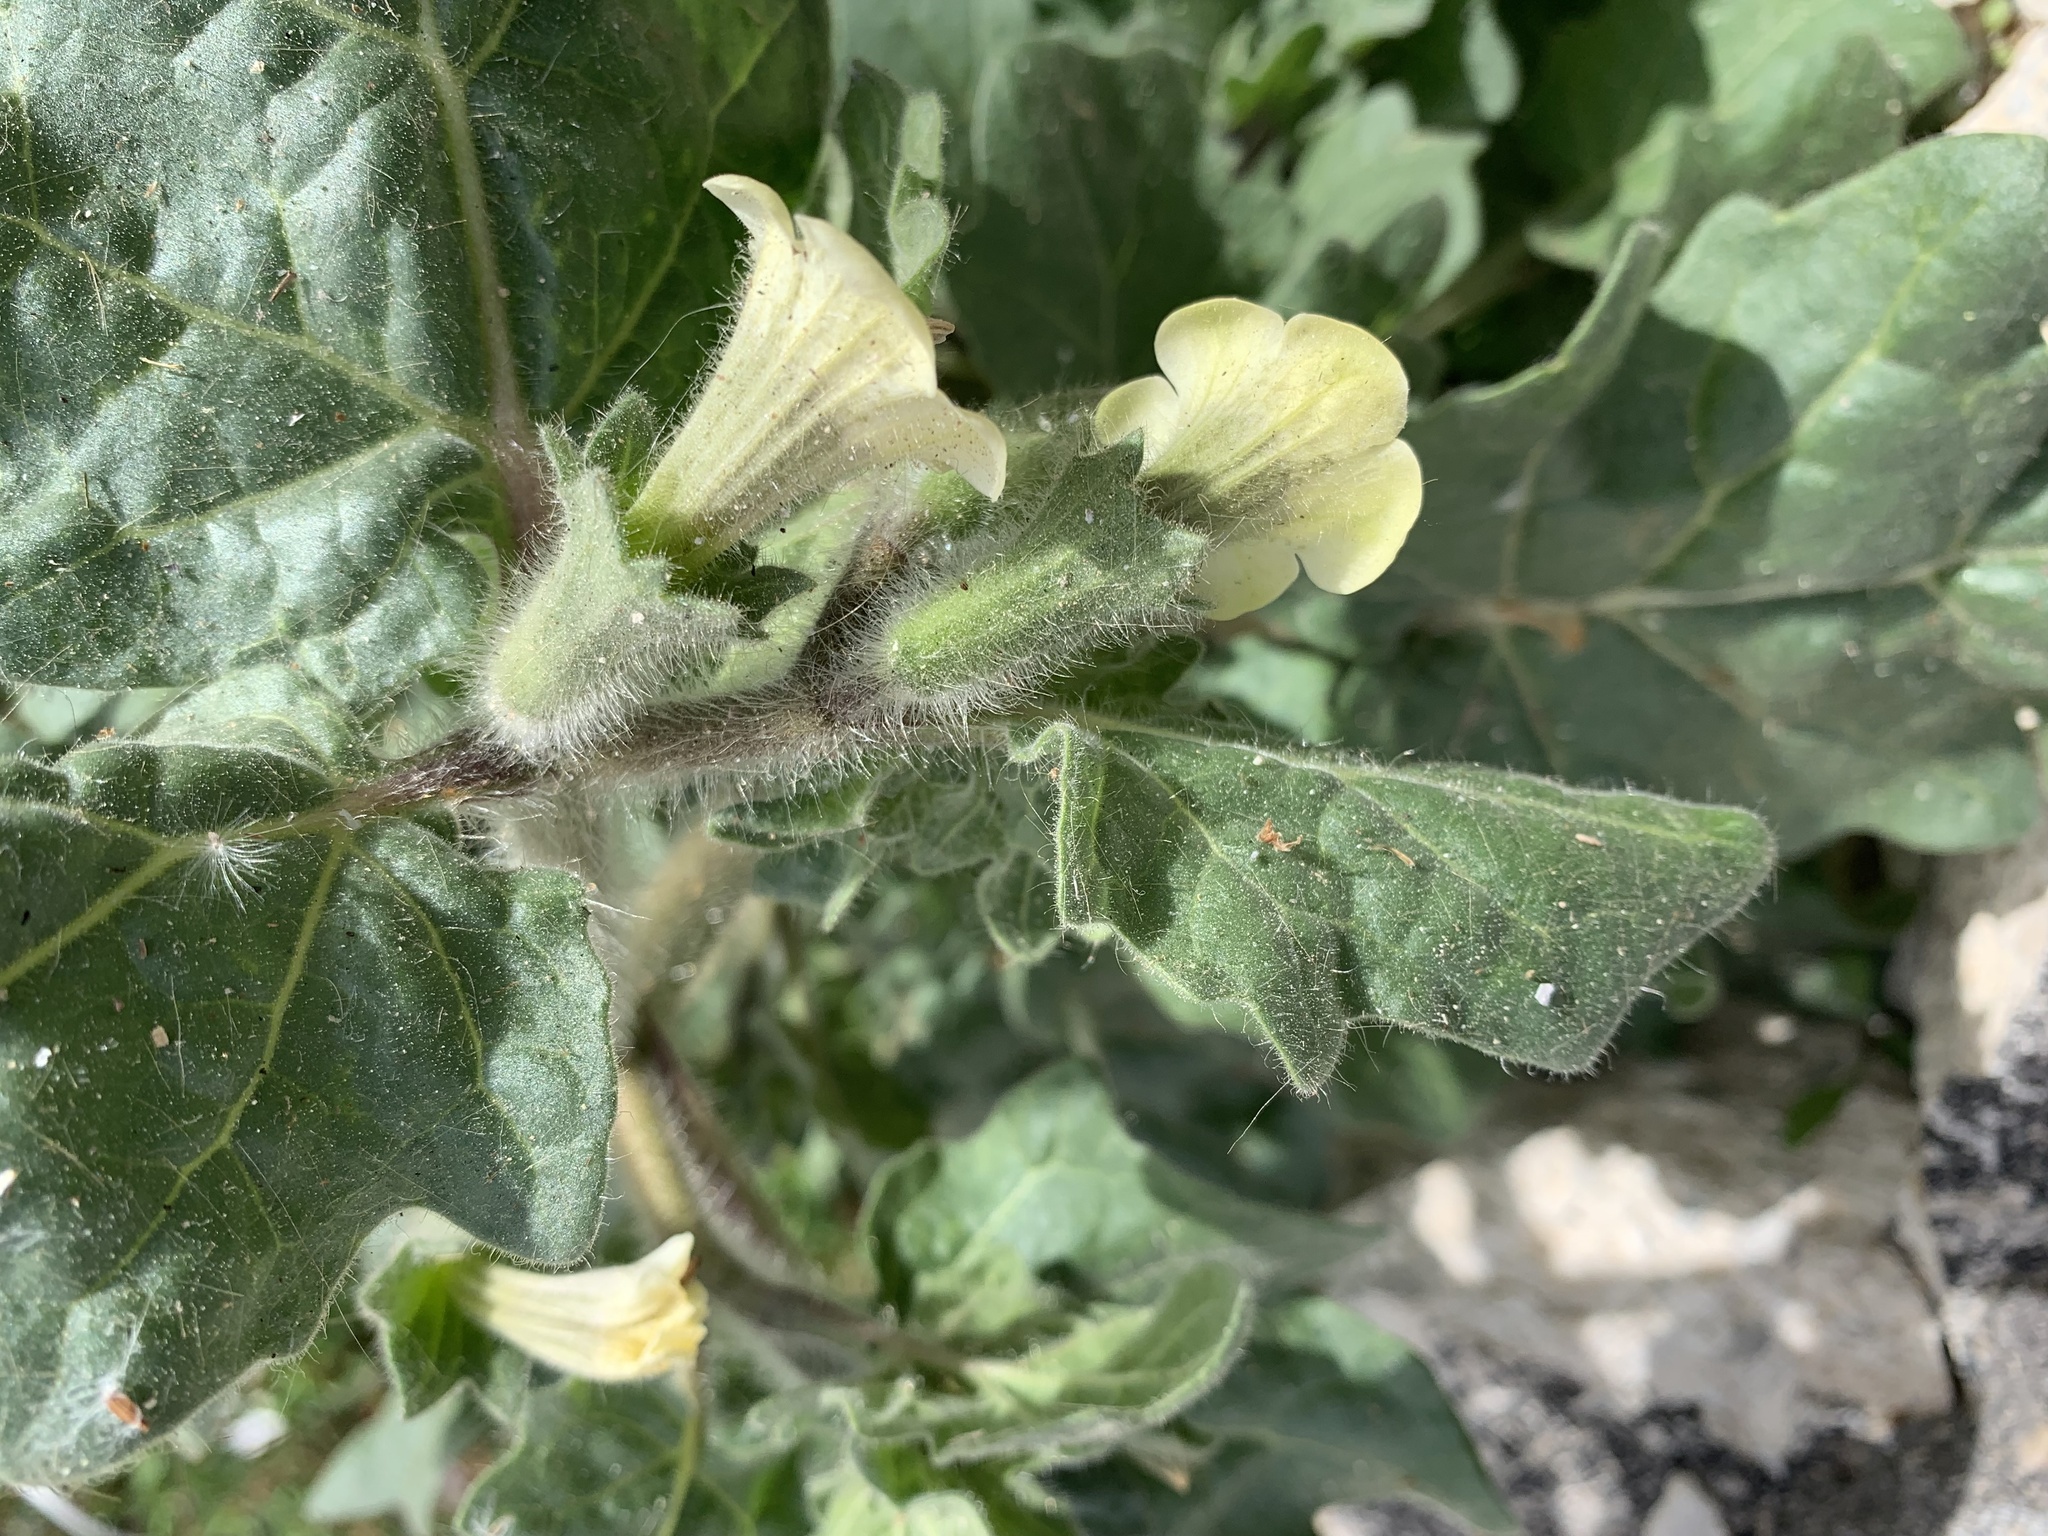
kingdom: Plantae
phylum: Tracheophyta
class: Magnoliopsida
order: Solanales
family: Solanaceae
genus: Hyoscyamus
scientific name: Hyoscyamus albus
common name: White henbane
